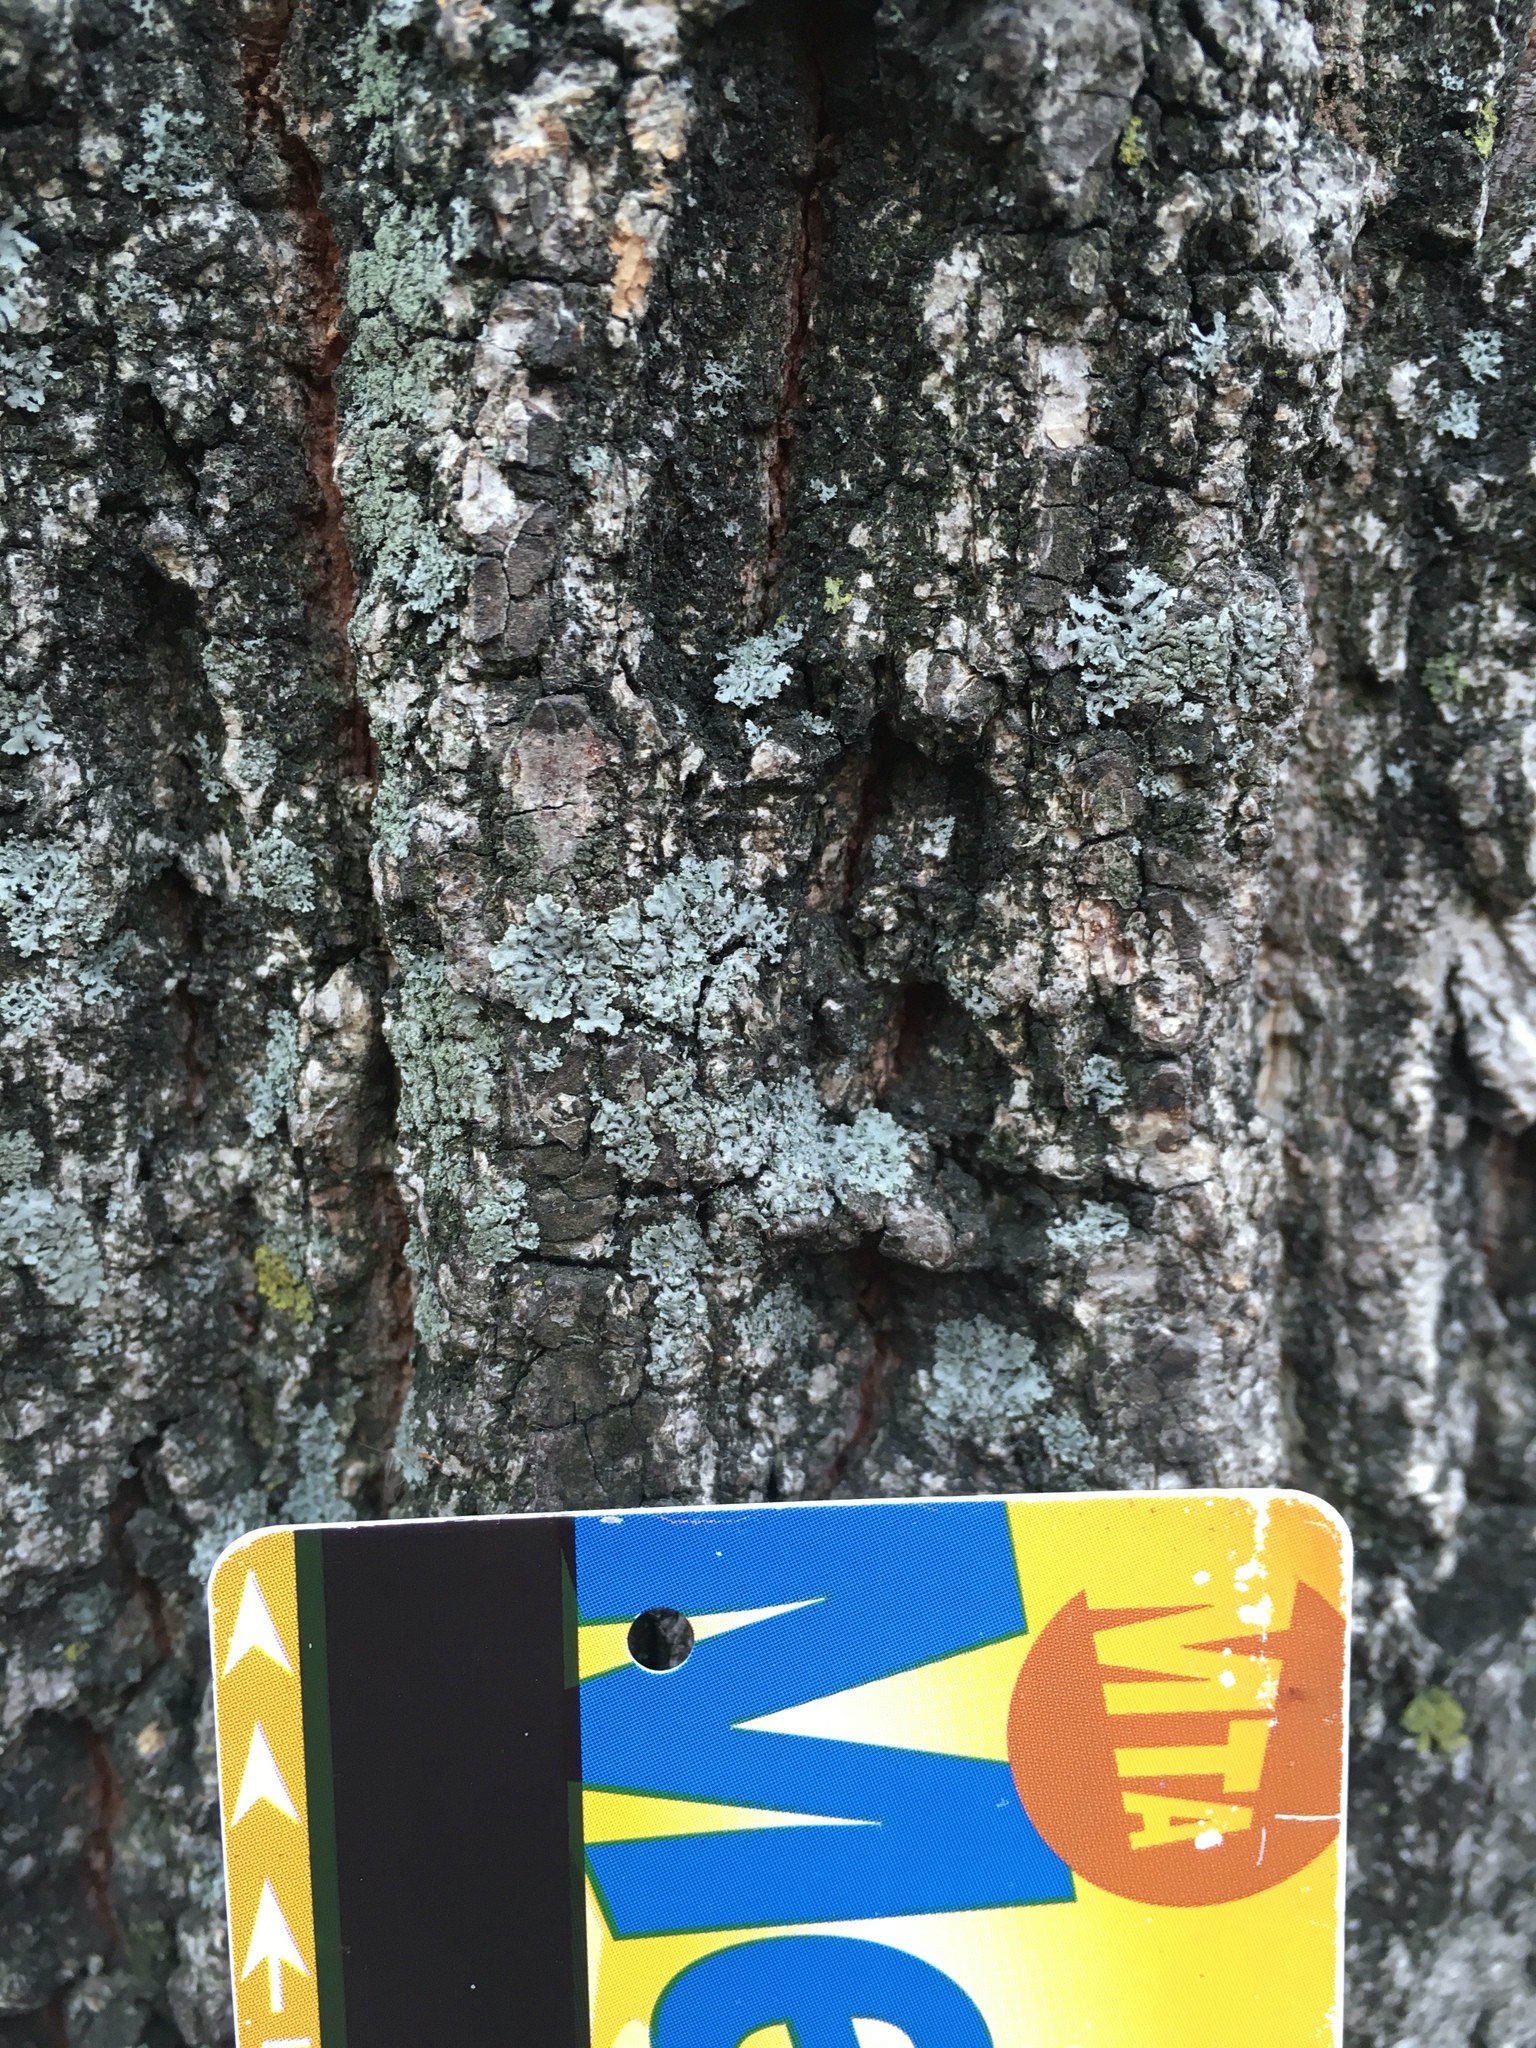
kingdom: Fungi
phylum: Ascomycota
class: Lecanoromycetes
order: Caliciales
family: Physciaceae
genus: Physcia
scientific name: Physcia millegrana
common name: Rosette lichen
